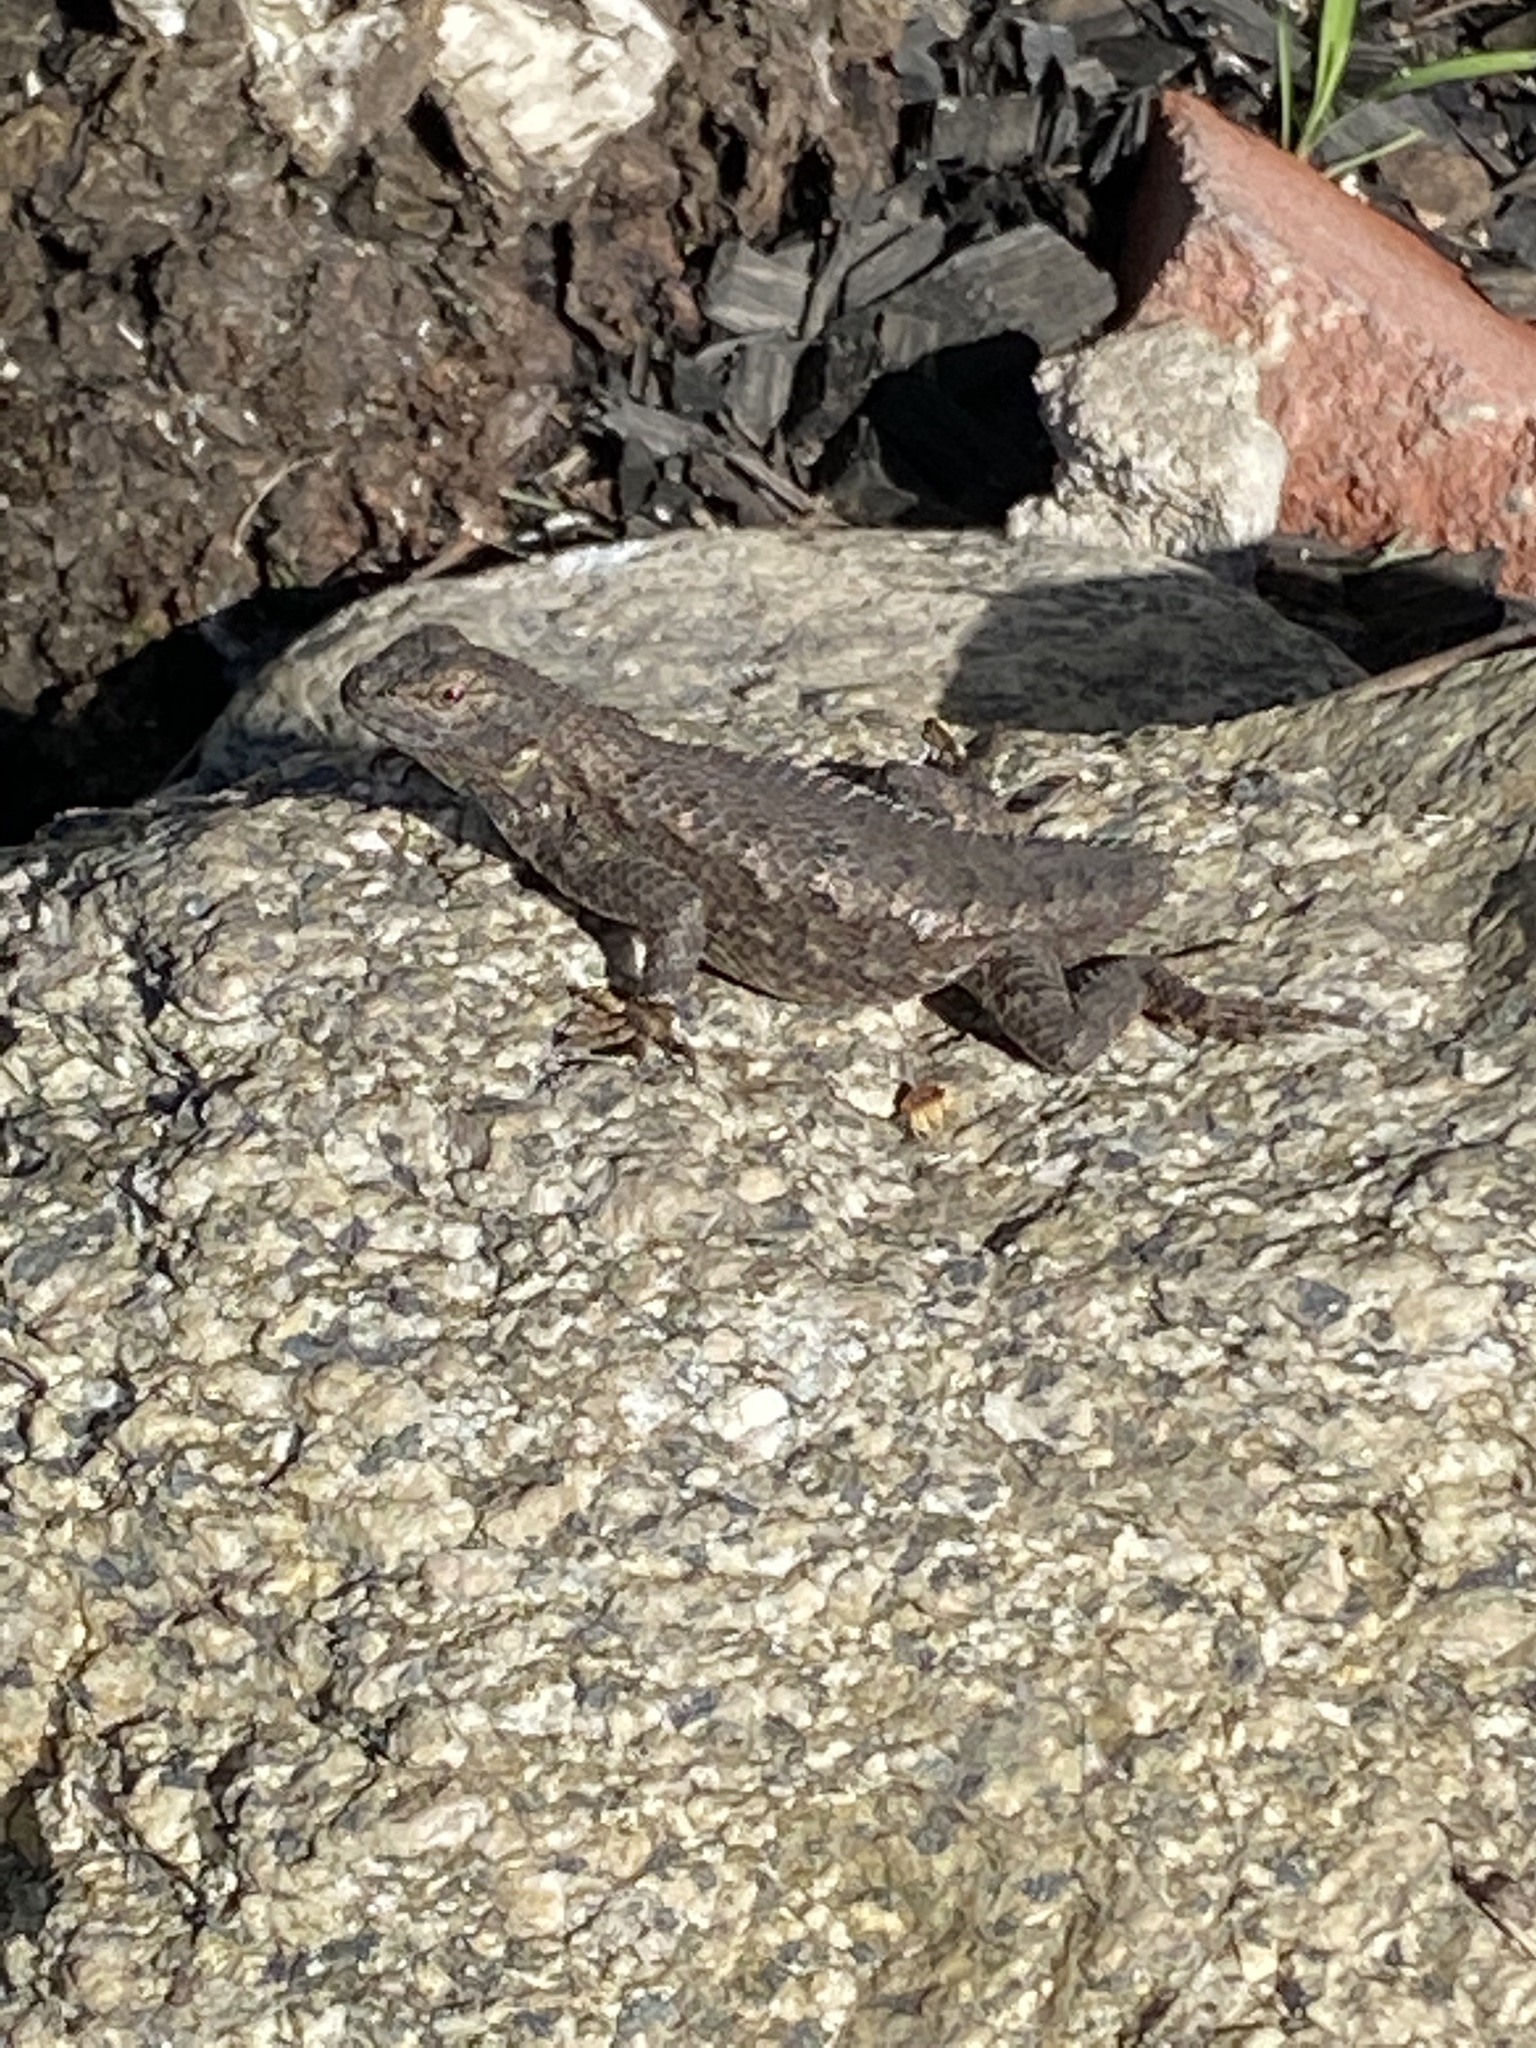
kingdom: Animalia
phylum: Chordata
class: Squamata
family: Phrynosomatidae
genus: Sceloporus
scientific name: Sceloporus occidentalis
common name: Western fence lizard
